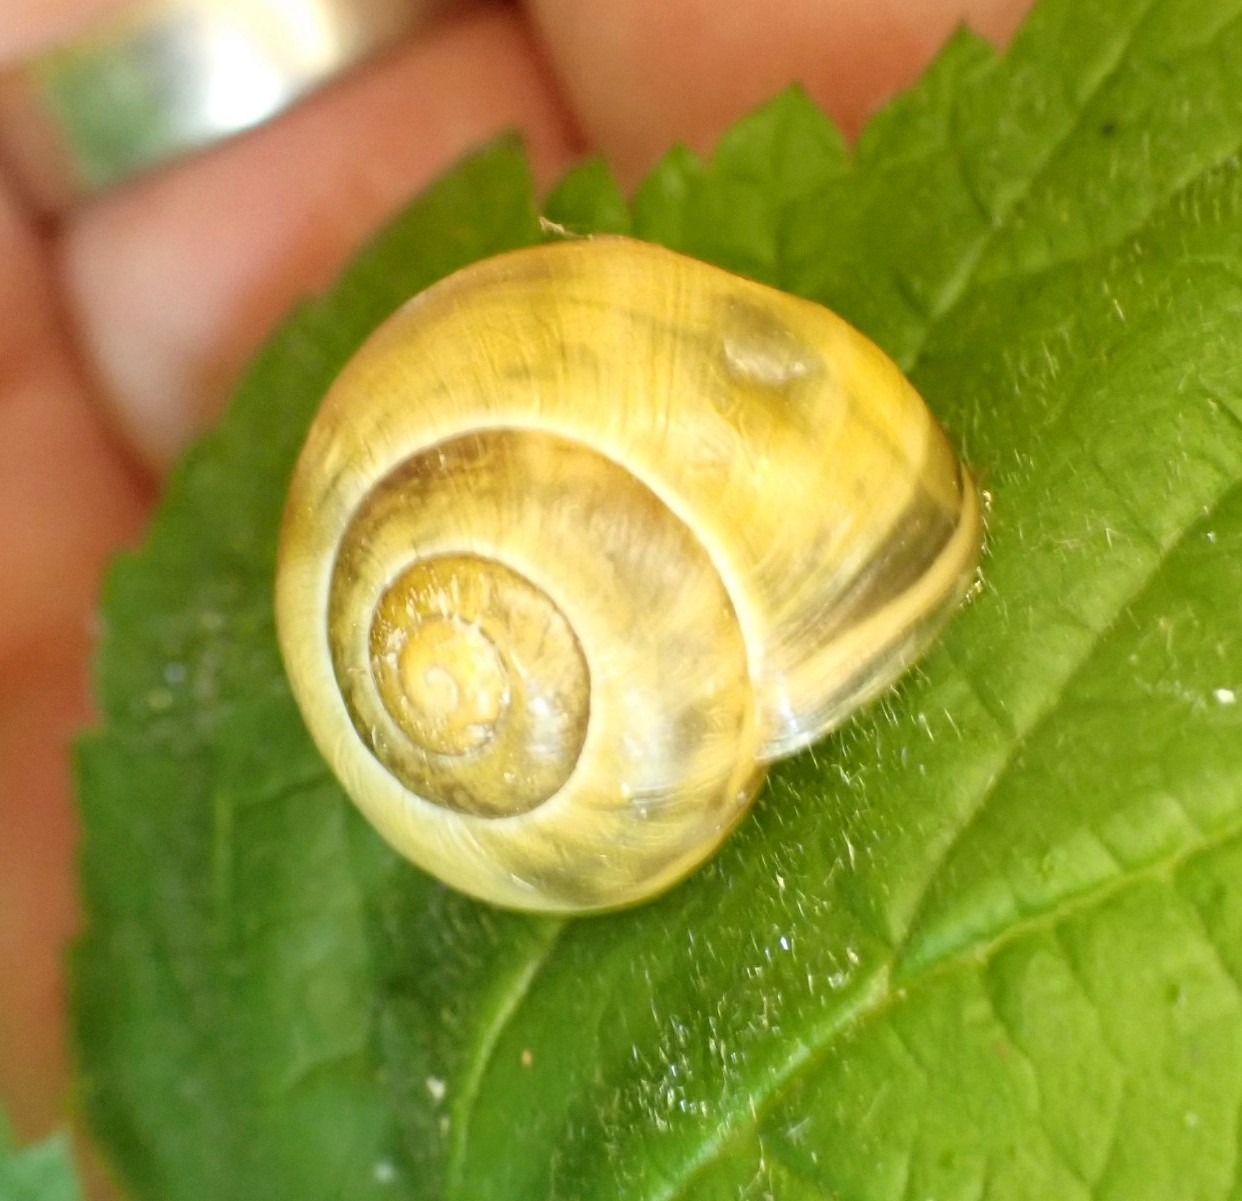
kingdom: Animalia
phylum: Mollusca
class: Gastropoda
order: Stylommatophora
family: Helicidae
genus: Cepaea
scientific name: Cepaea
